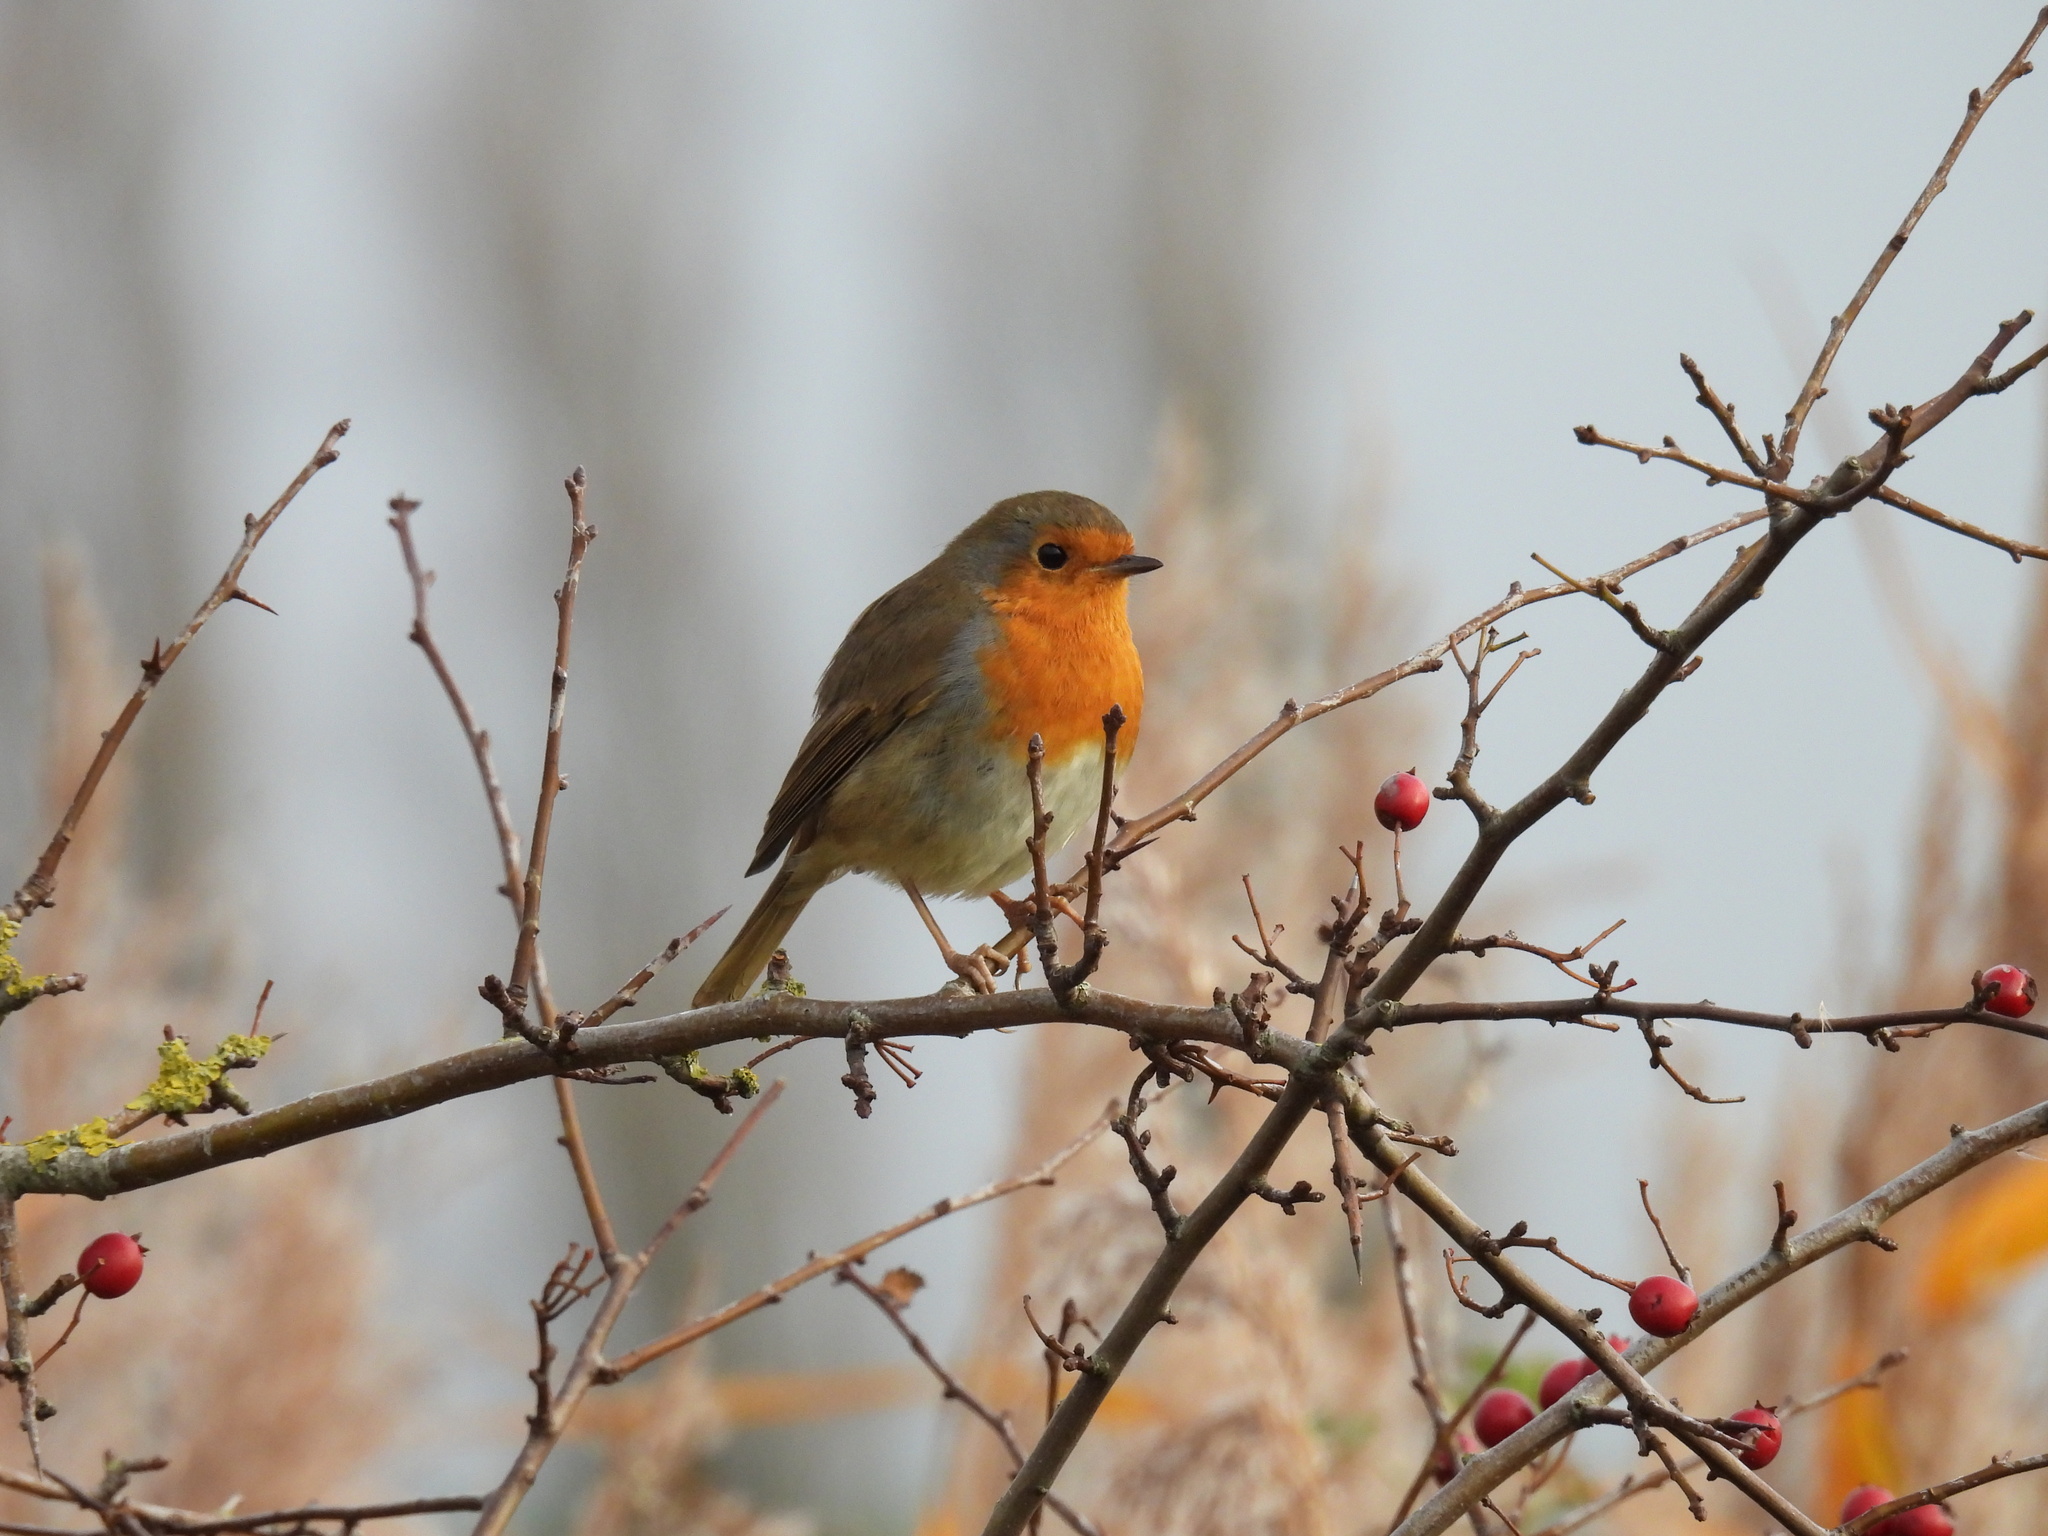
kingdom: Animalia
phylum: Chordata
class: Aves
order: Passeriformes
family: Muscicapidae
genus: Erithacus
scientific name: Erithacus rubecula
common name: European robin
